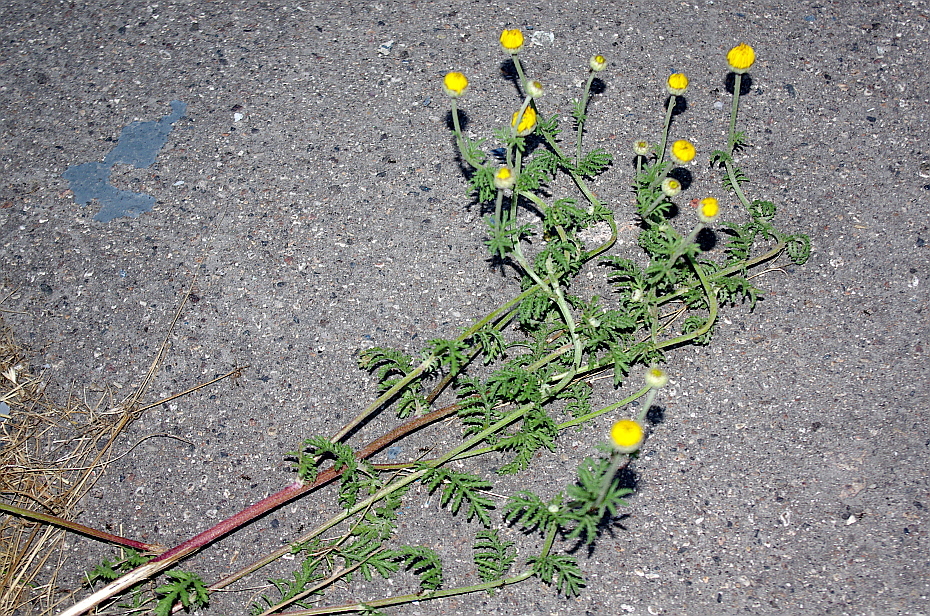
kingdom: Plantae
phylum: Tracheophyta
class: Magnoliopsida
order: Asterales
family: Asteraceae
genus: Cota
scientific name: Cota tinctoria
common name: Golden chamomile
